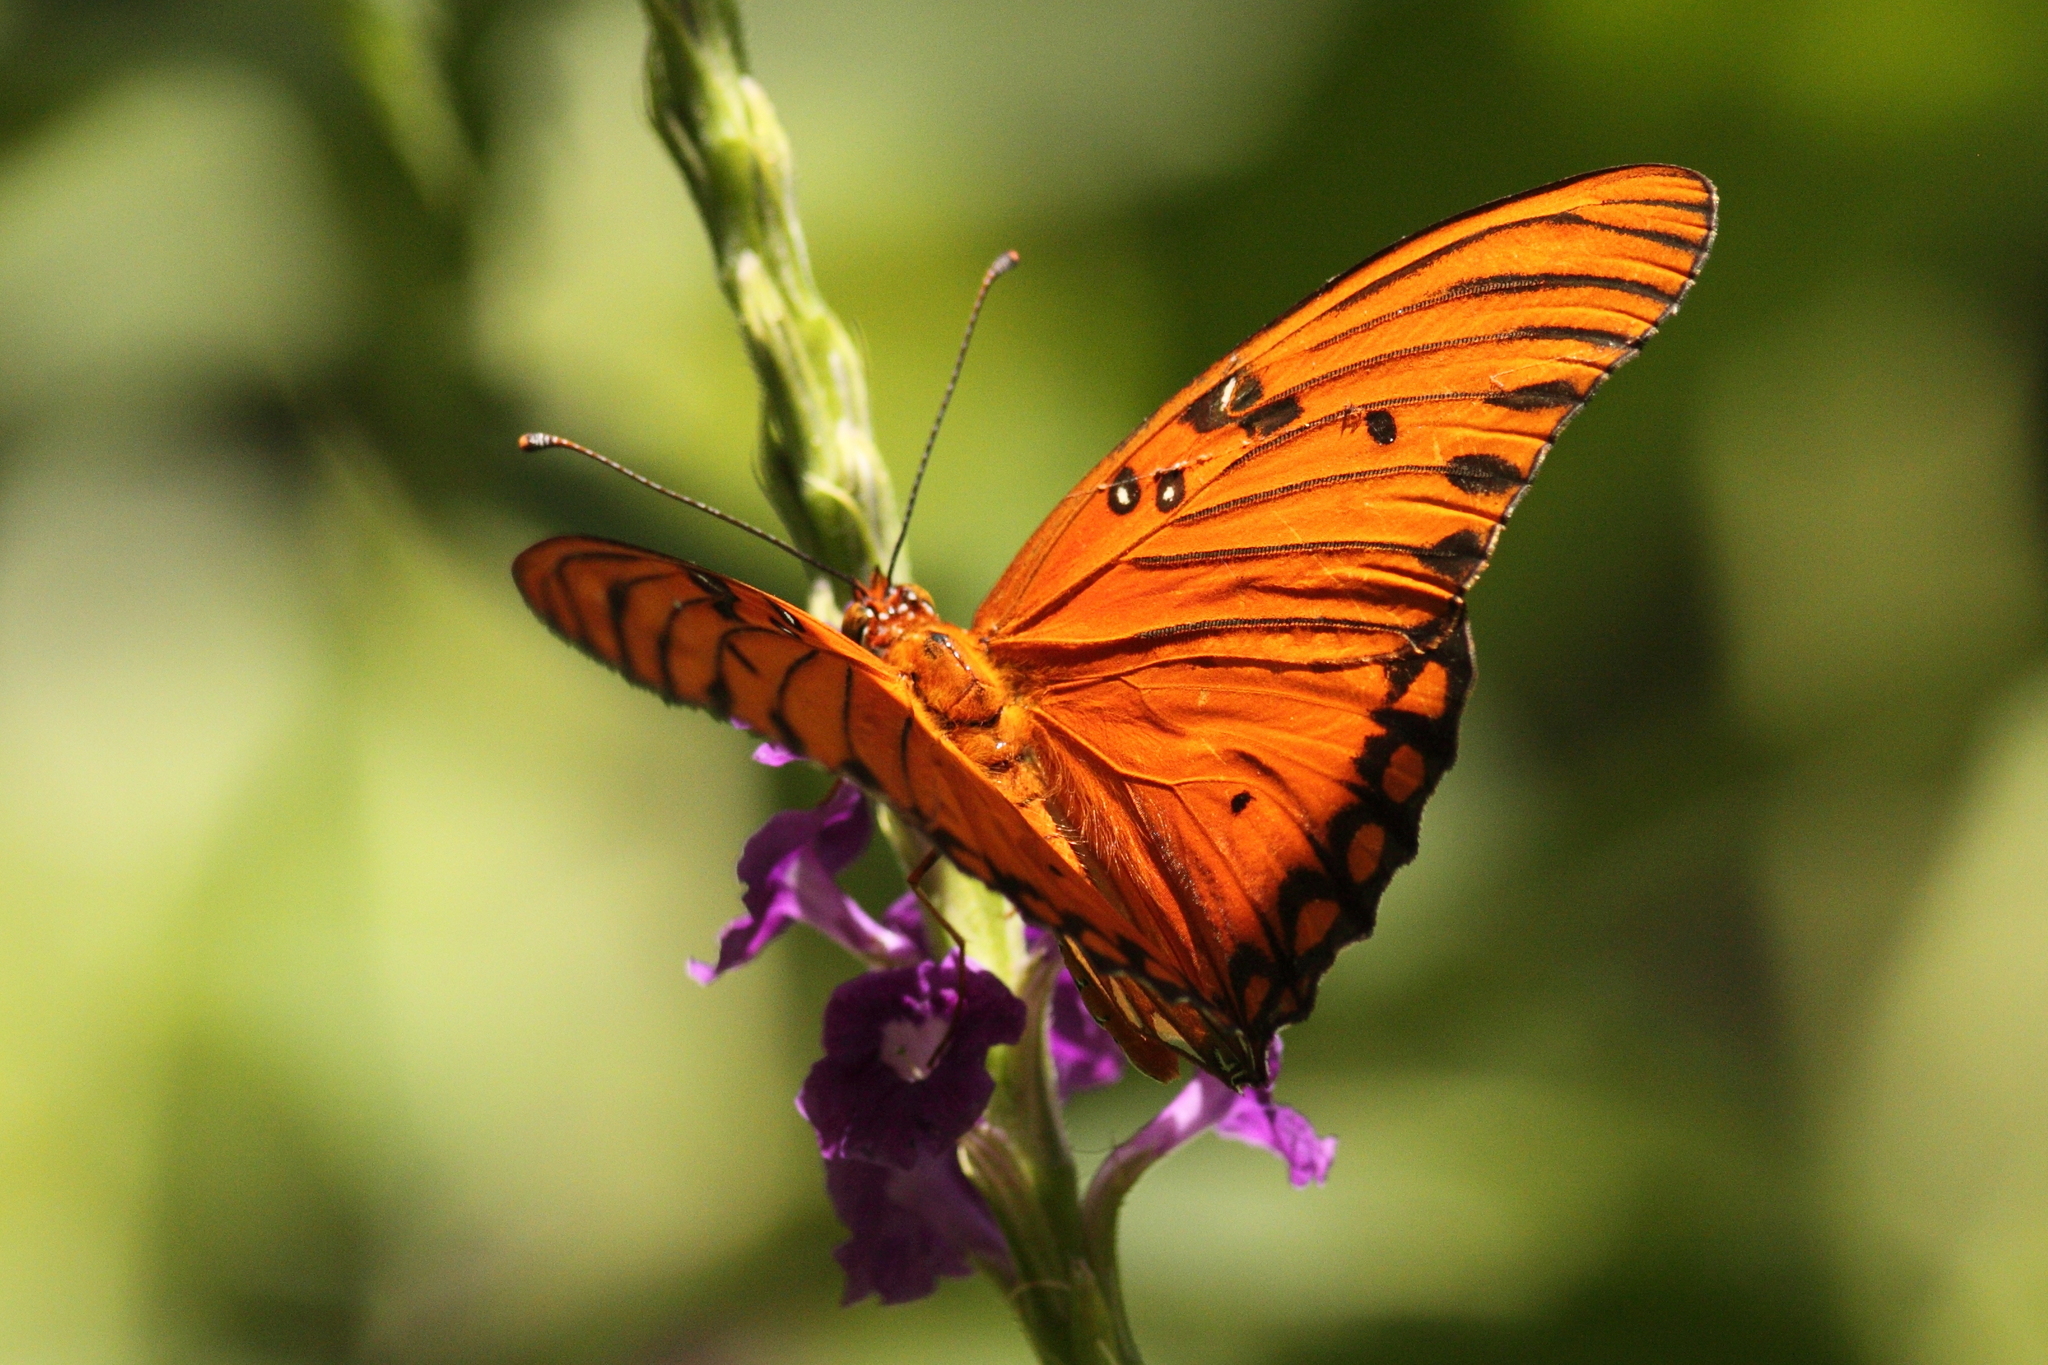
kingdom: Animalia
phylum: Arthropoda
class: Insecta
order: Lepidoptera
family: Nymphalidae
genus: Dione
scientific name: Dione vanillae
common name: Gulf fritillary
